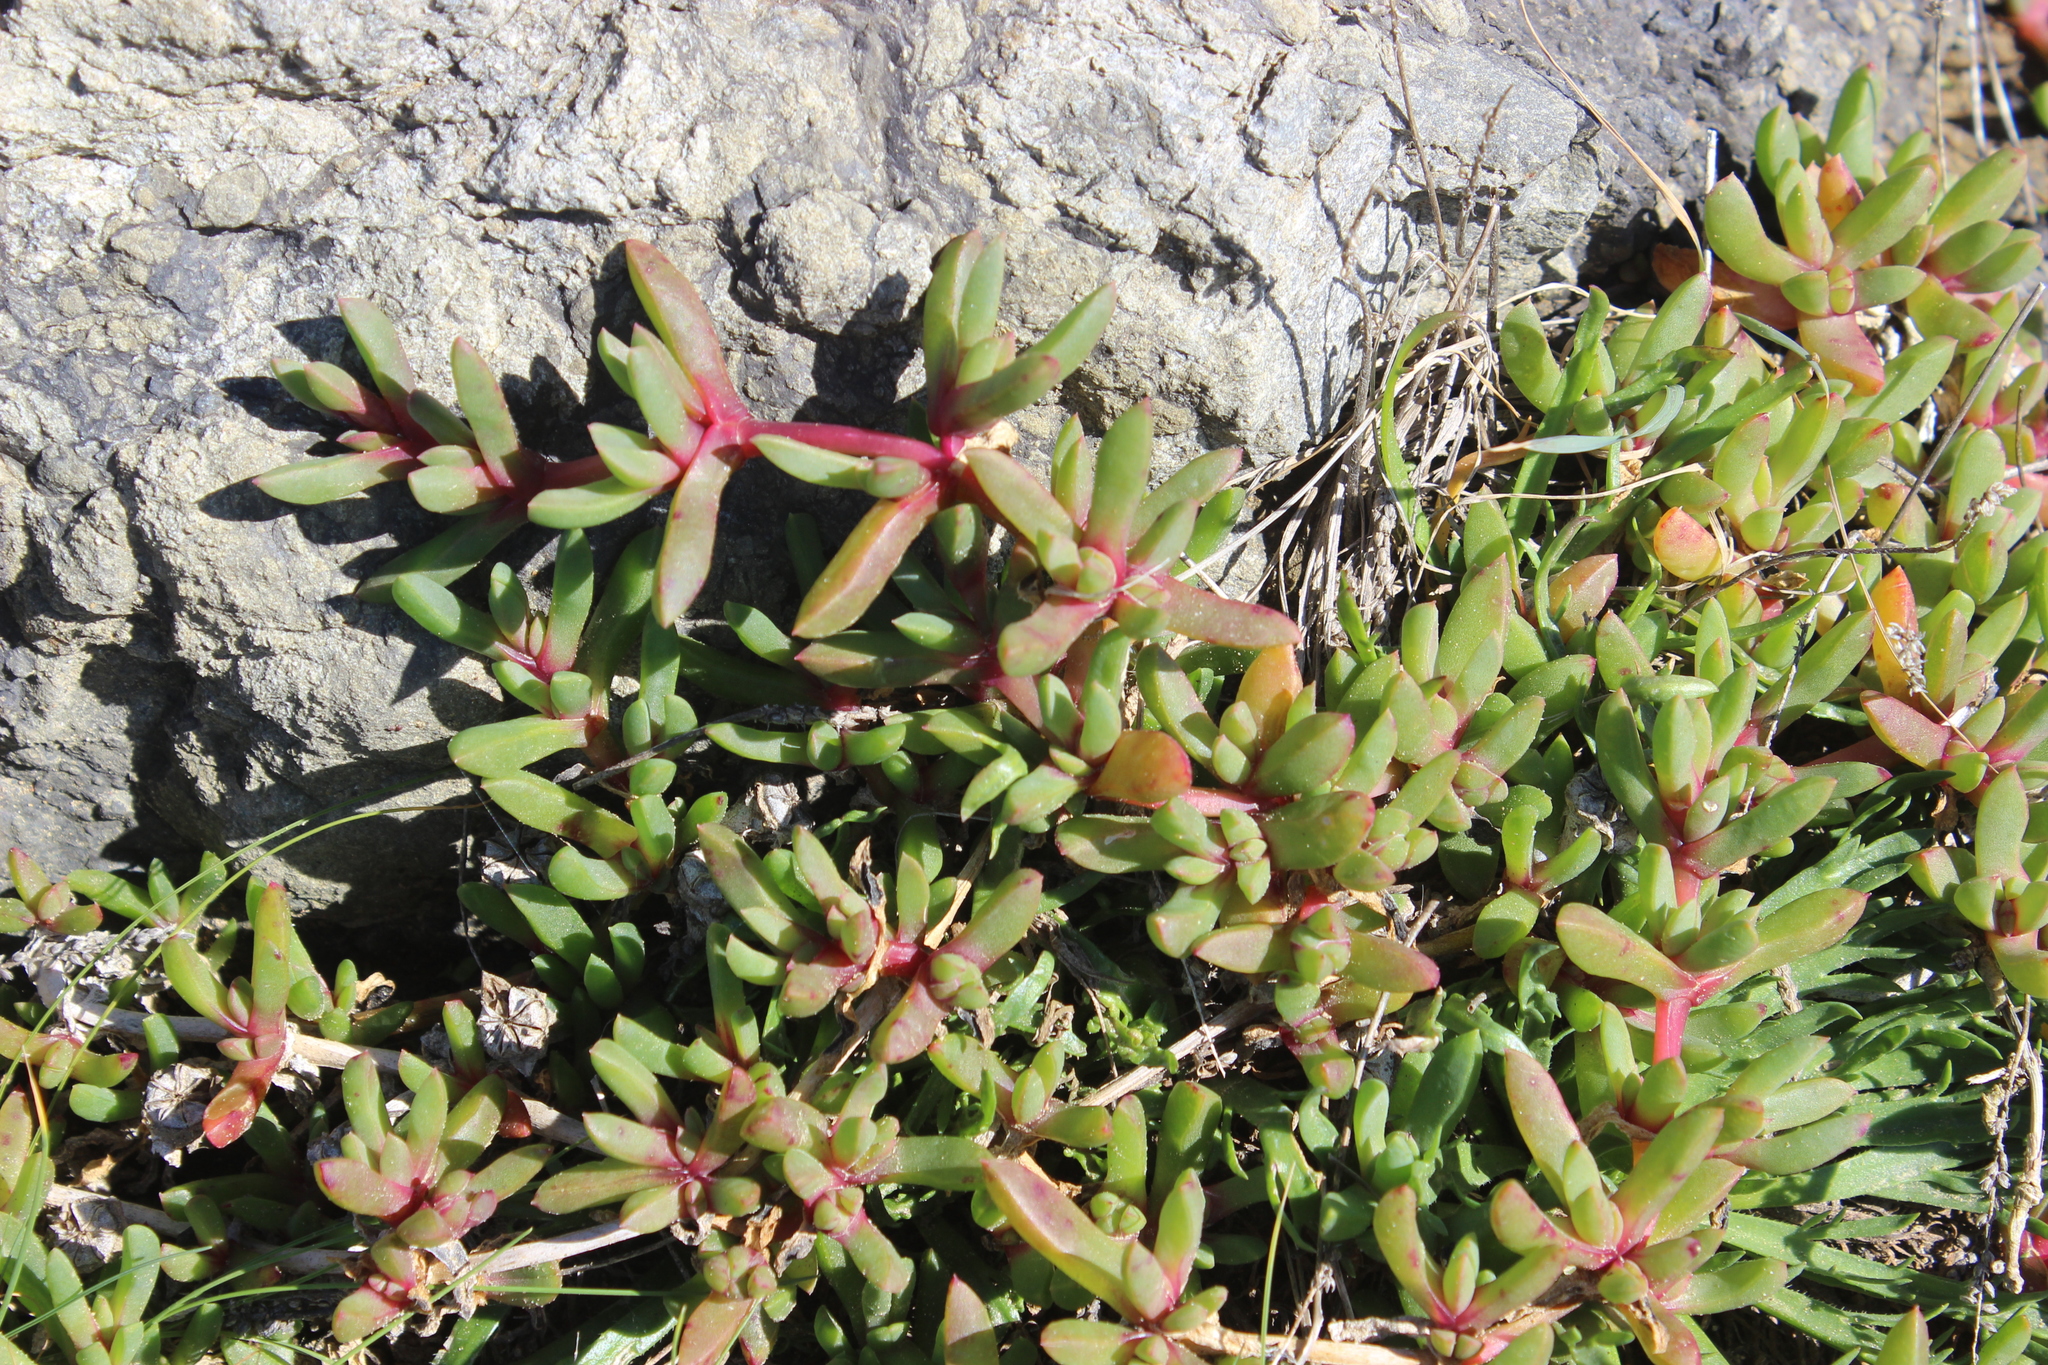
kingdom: Plantae
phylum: Tracheophyta
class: Magnoliopsida
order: Caryophyllales
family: Aizoaceae
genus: Disphyma
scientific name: Disphyma australe
